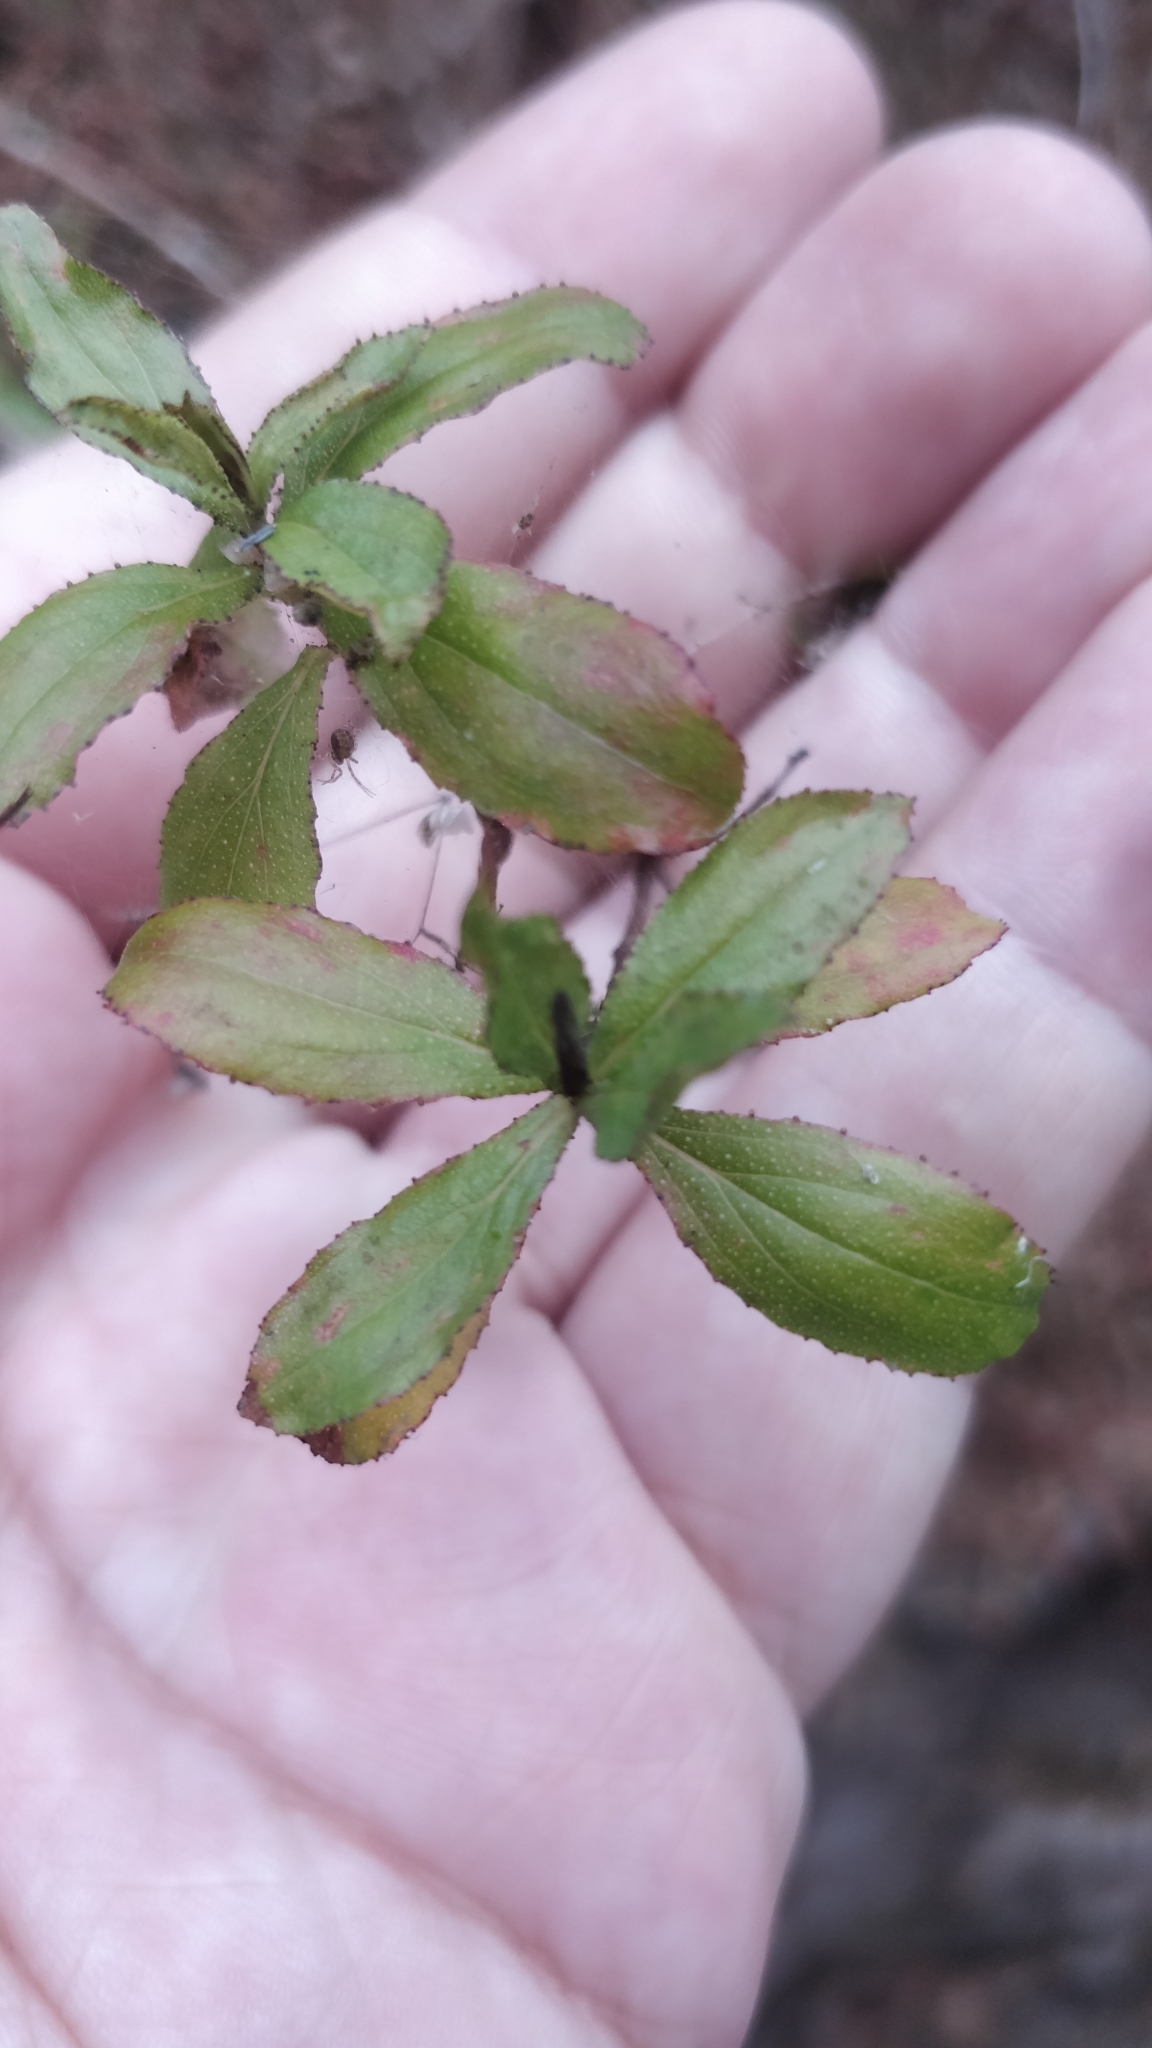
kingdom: Plantae
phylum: Tracheophyta
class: Magnoliopsida
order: Malpighiales
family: Hypericaceae
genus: Hypericum
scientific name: Hypericum glandulosum
